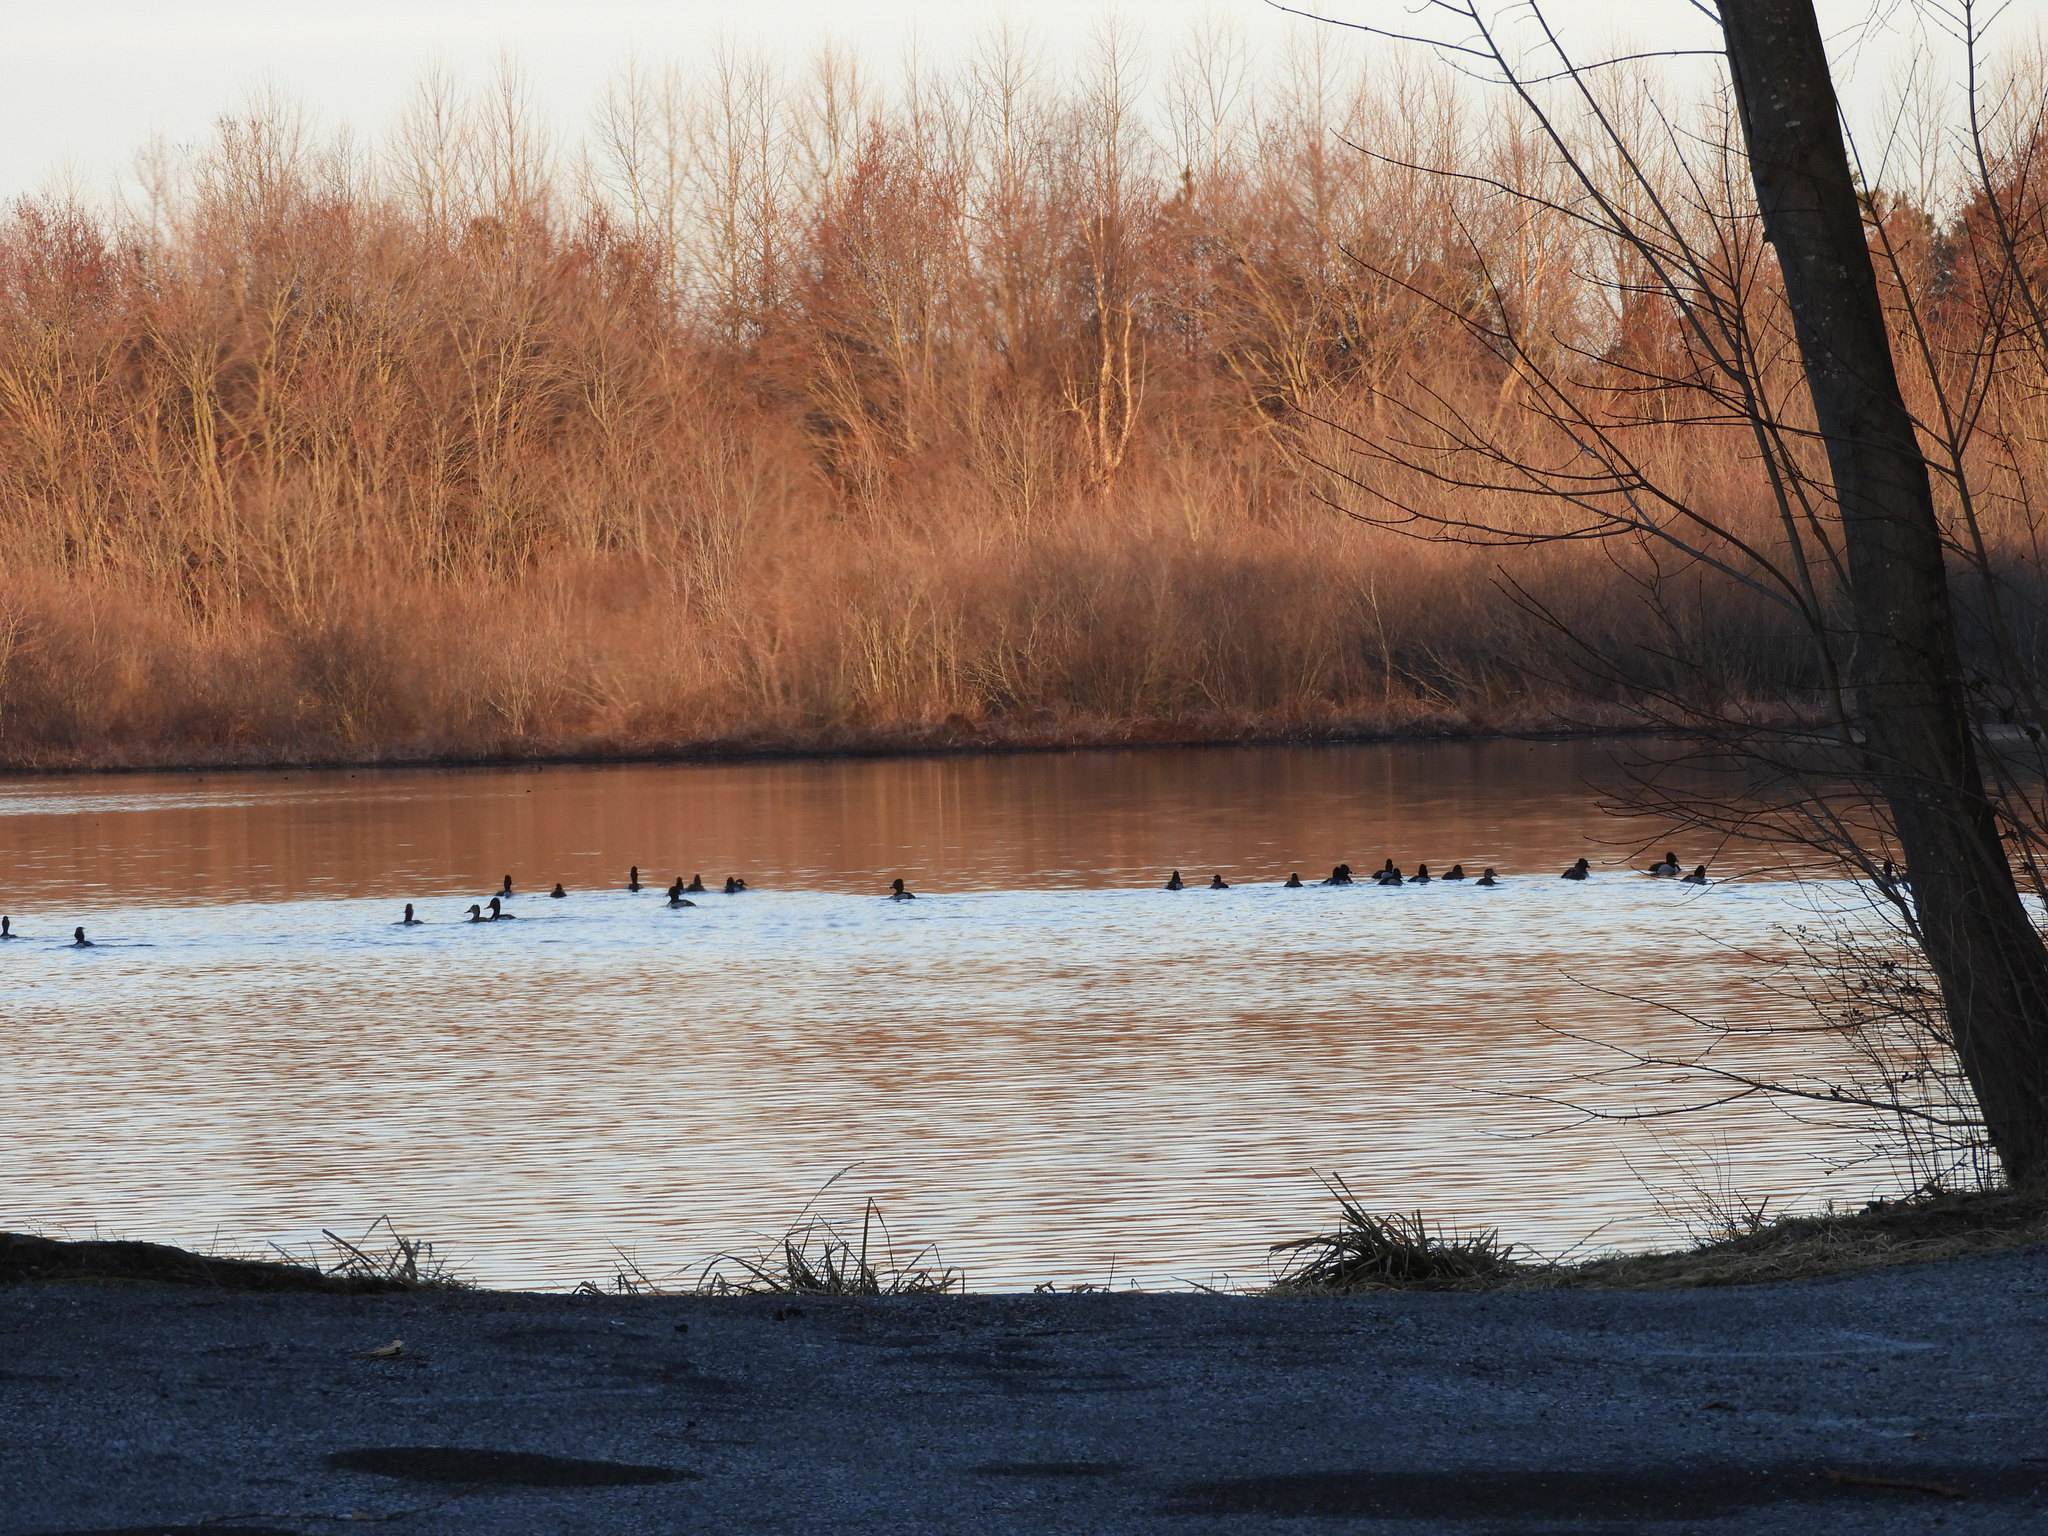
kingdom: Animalia
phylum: Chordata
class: Aves
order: Anseriformes
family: Anatidae
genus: Aythya
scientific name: Aythya collaris
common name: Ring-necked duck
